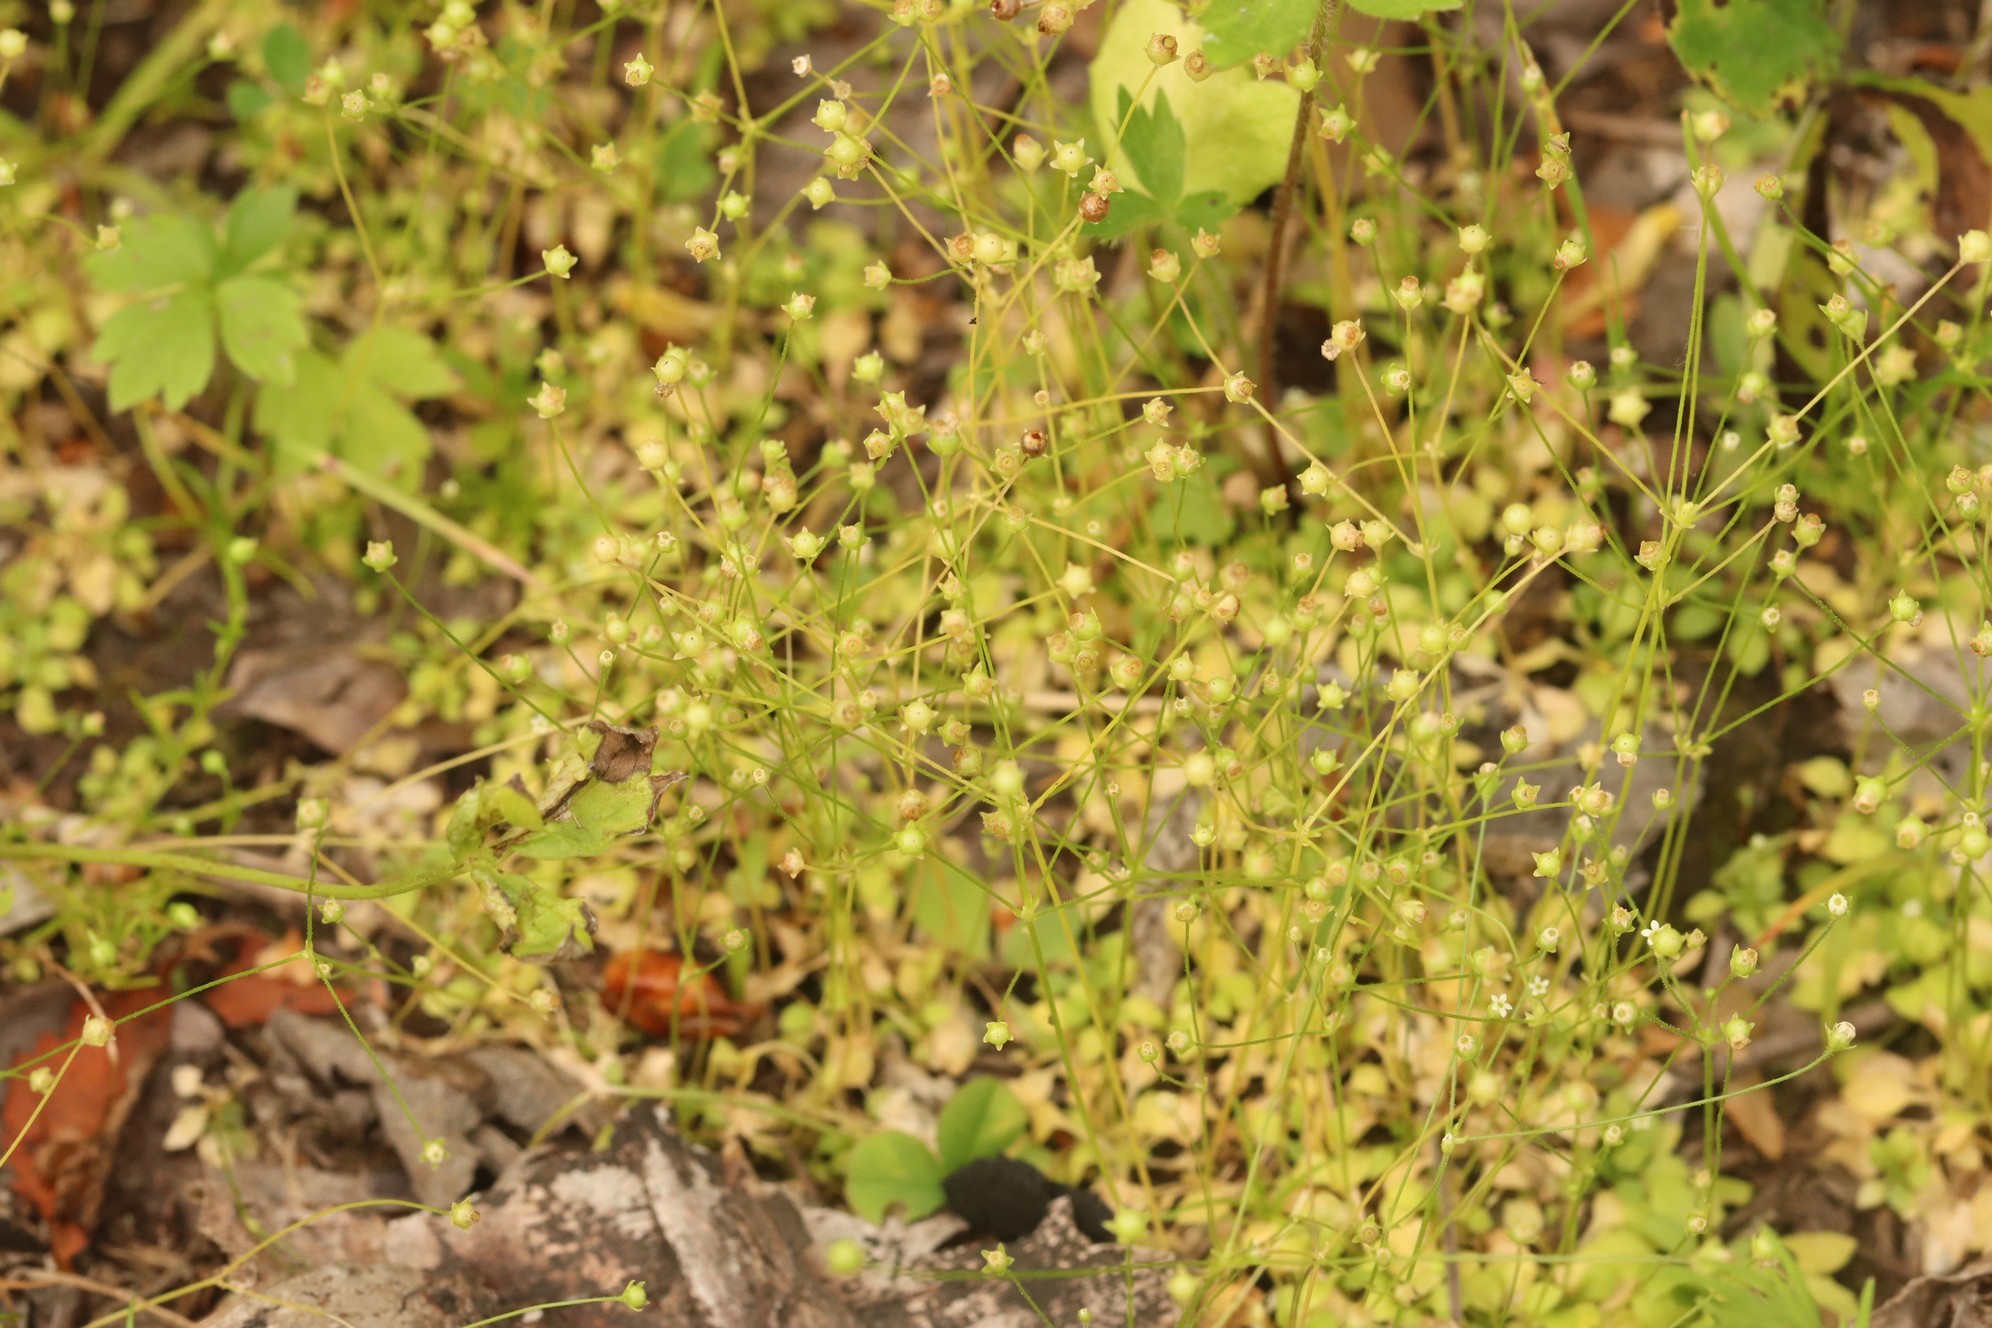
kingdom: Plantae
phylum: Tracheophyta
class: Magnoliopsida
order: Ericales
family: Primulaceae
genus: Androsace
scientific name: Androsace filiformis
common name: Filiform rock jasmine
